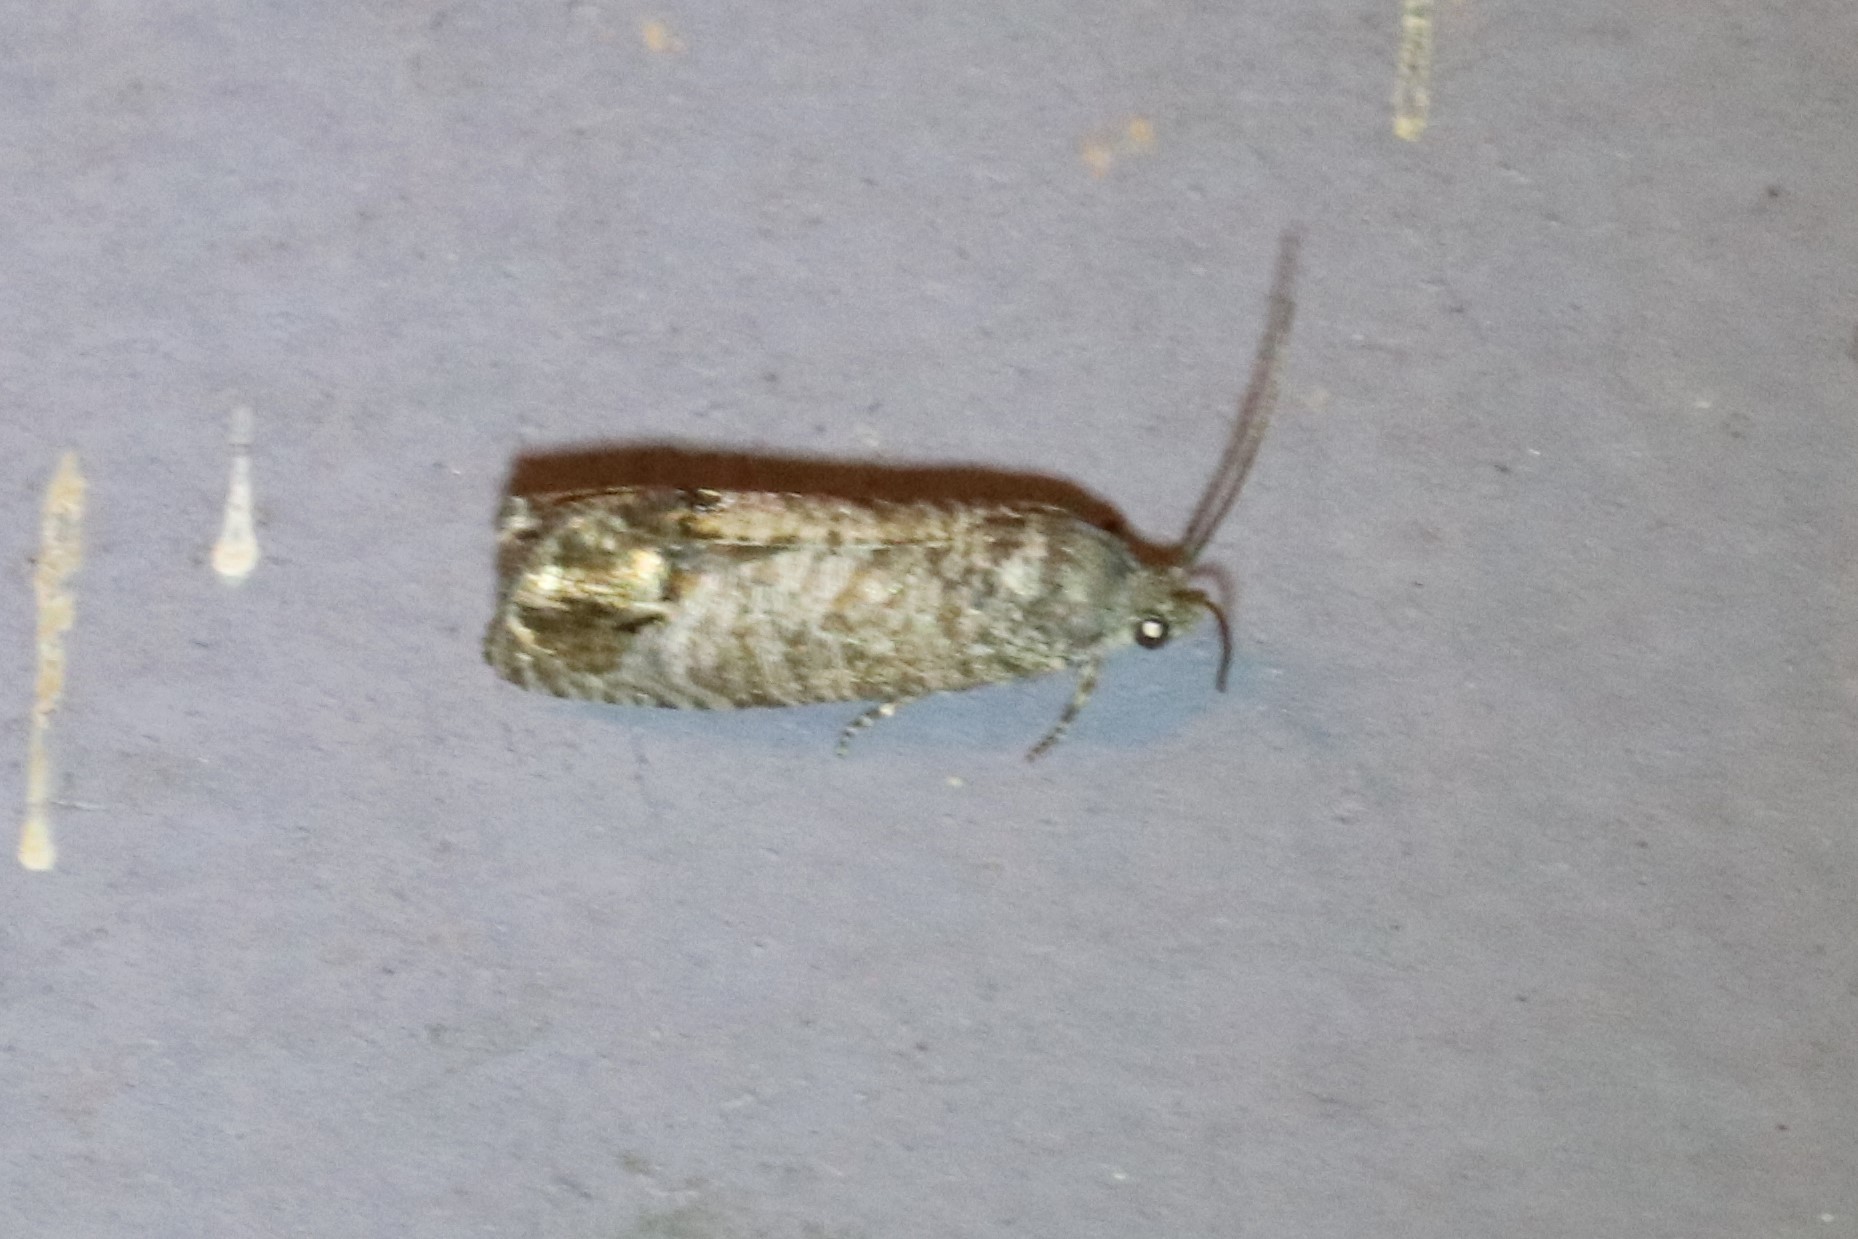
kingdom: Animalia
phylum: Arthropoda
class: Insecta
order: Lepidoptera
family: Tortricidae
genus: Cydia
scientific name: Cydia pomonella
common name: Codling moth
